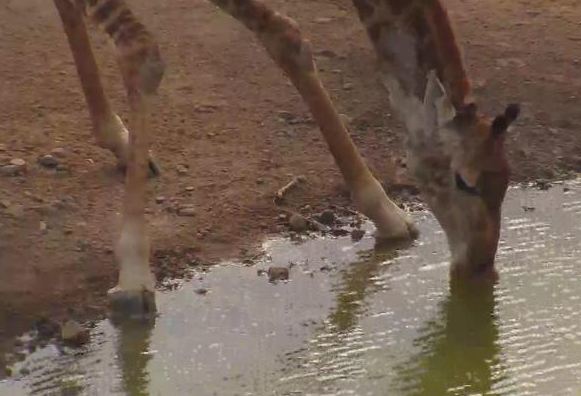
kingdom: Animalia
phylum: Chordata
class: Mammalia
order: Artiodactyla
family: Giraffidae
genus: Giraffa
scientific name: Giraffa giraffa
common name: Southern giraffe
